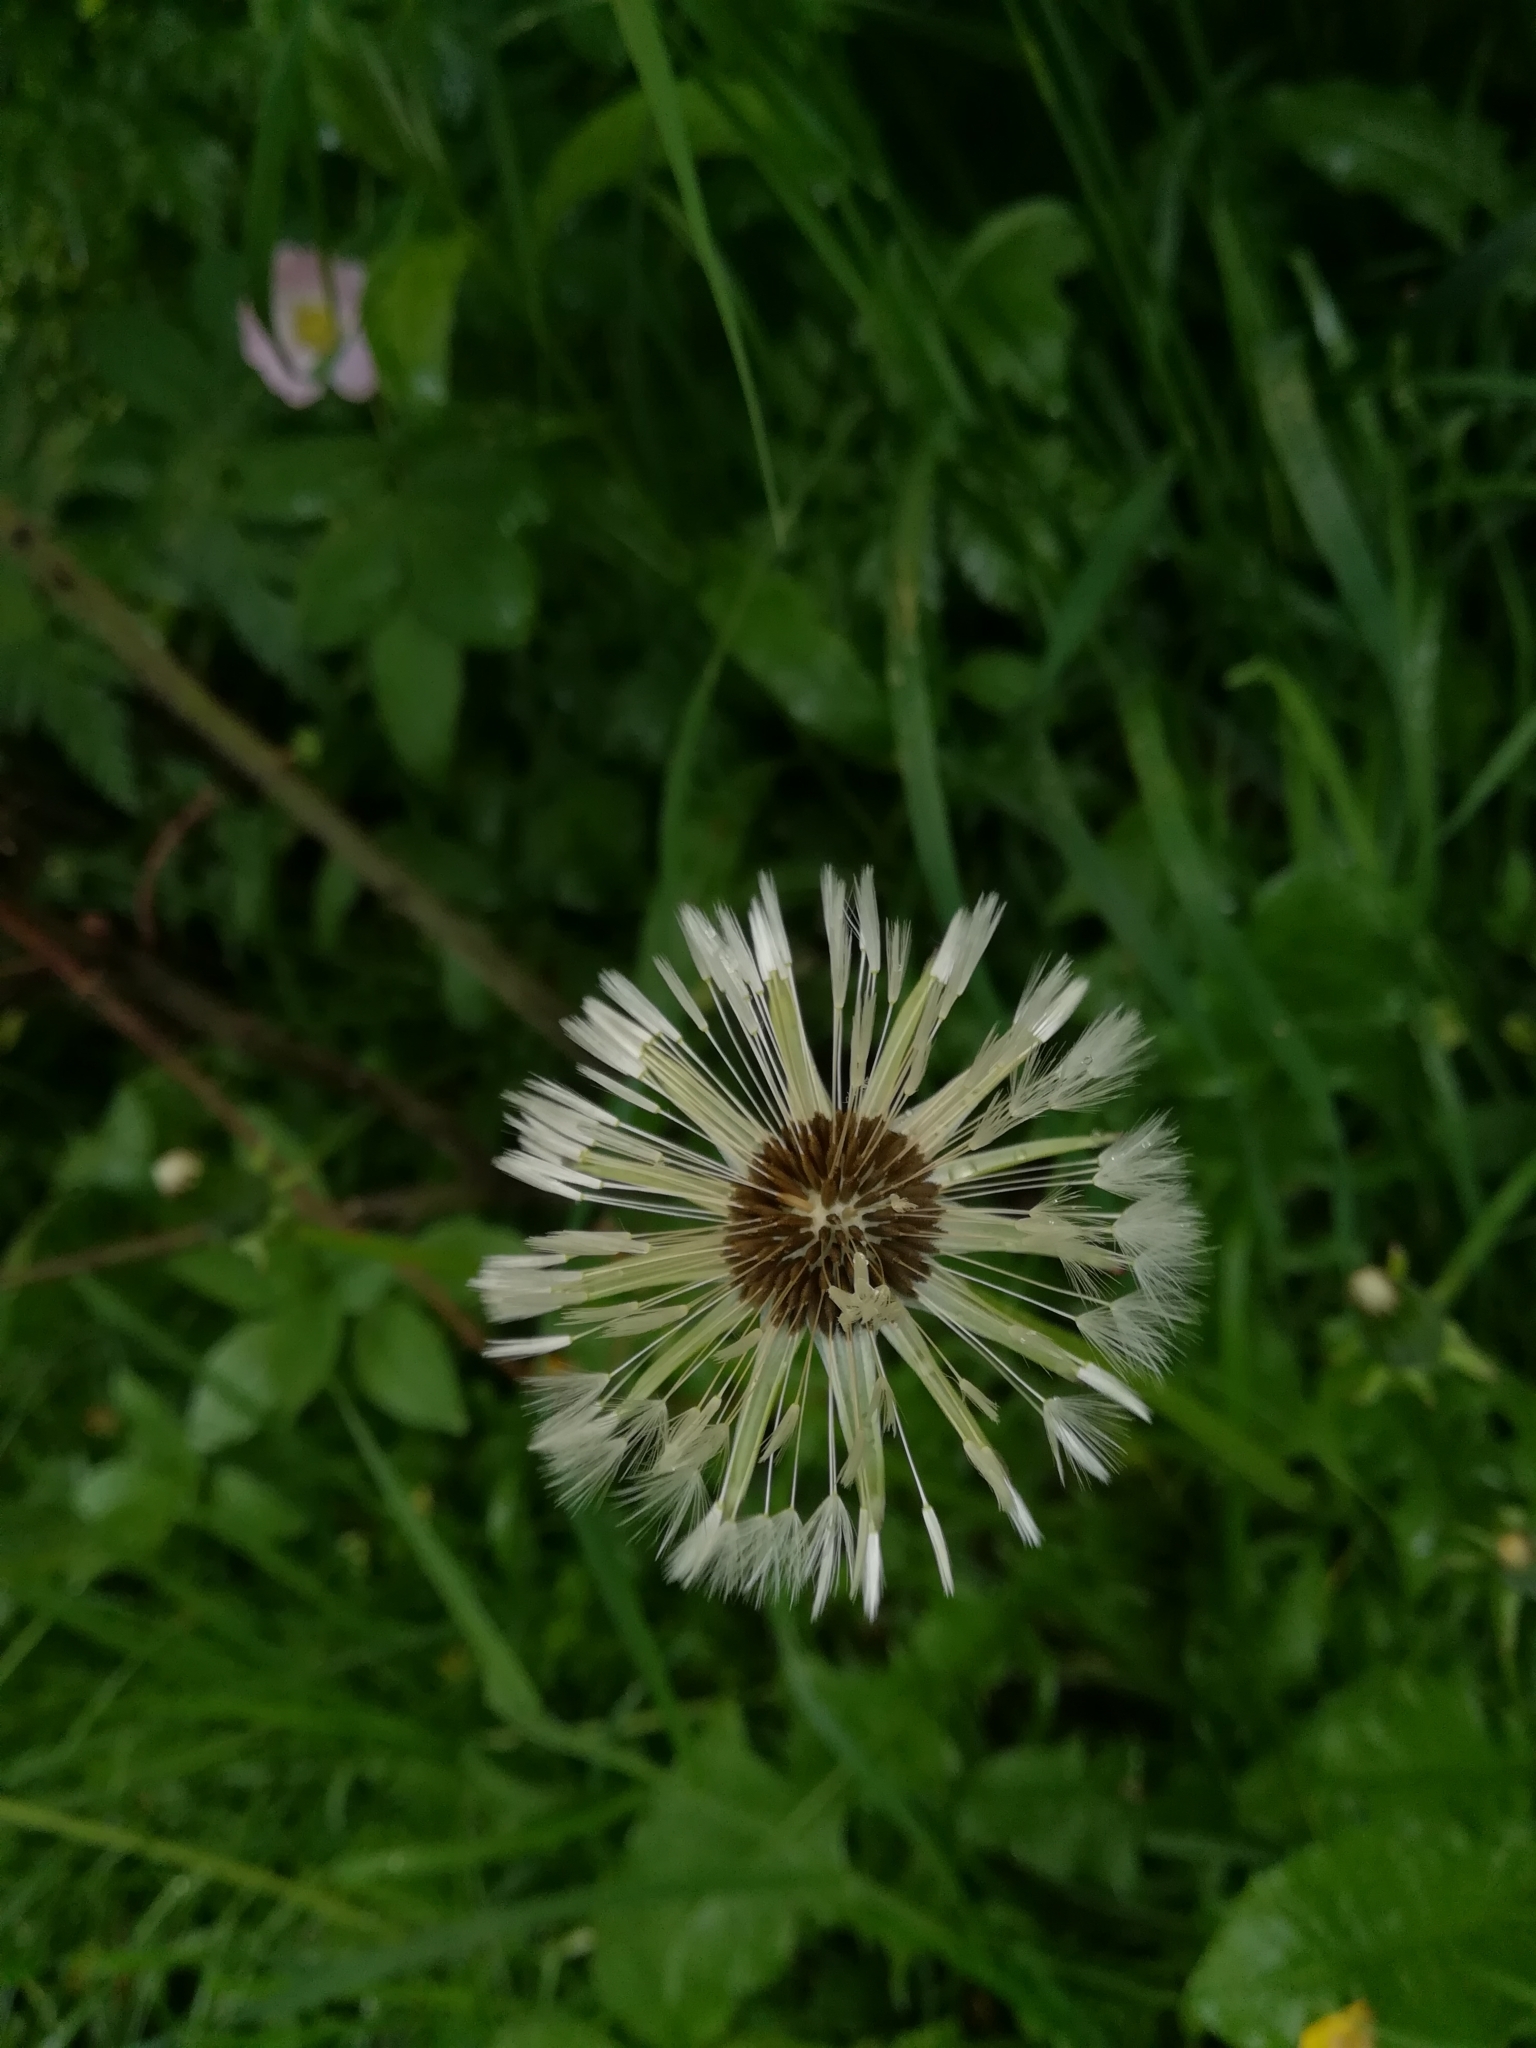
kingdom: Plantae
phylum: Tracheophyta
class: Magnoliopsida
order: Asterales
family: Asteraceae
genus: Taraxacum
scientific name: Taraxacum officinale
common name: Common dandelion
